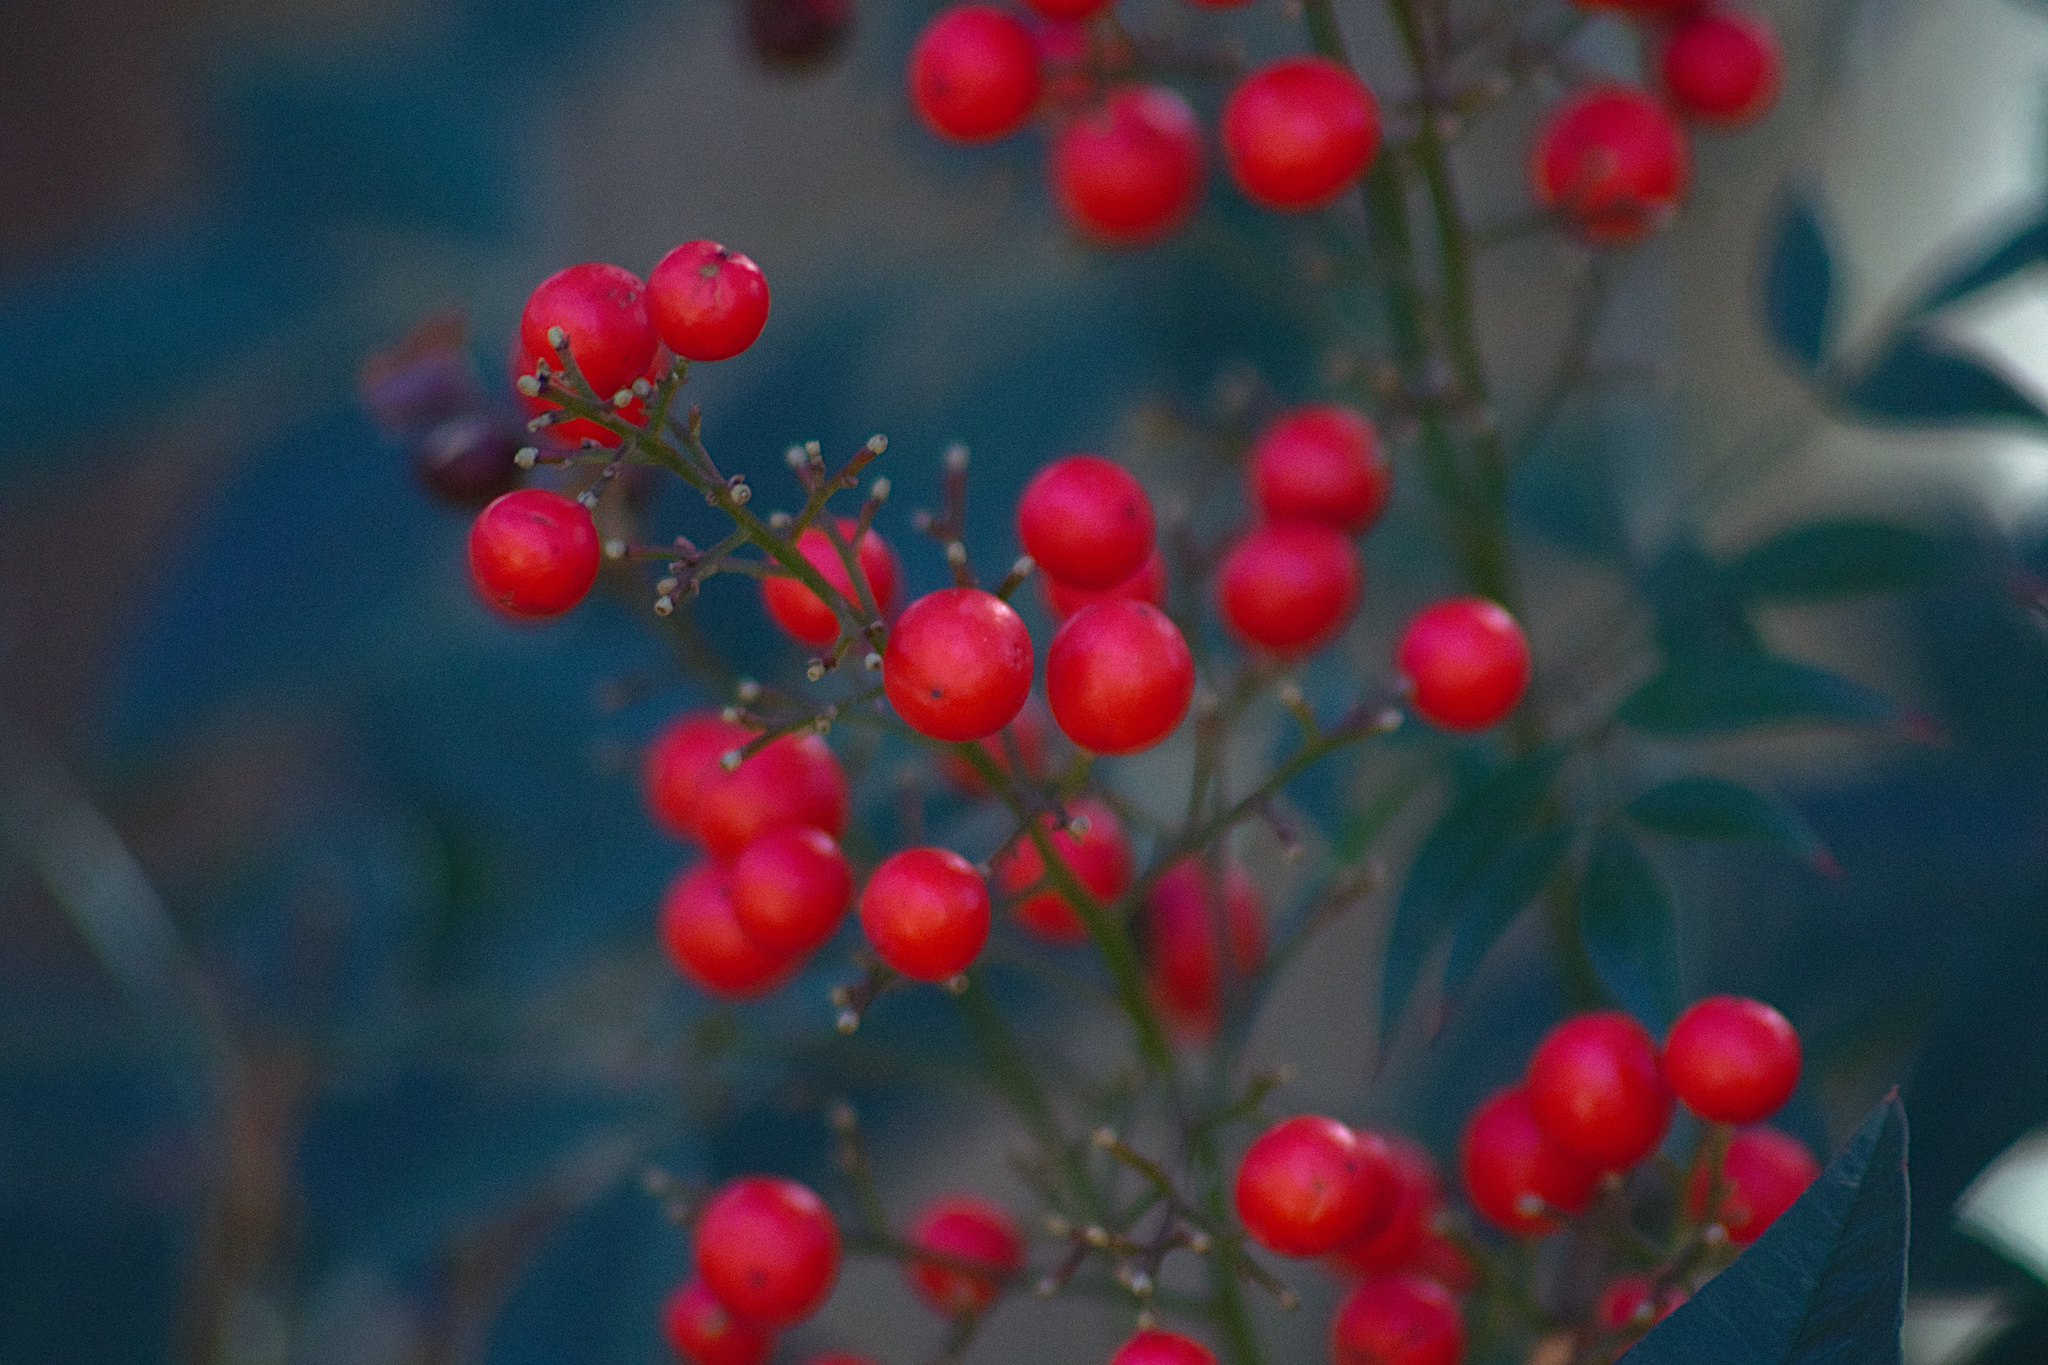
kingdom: Plantae
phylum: Tracheophyta
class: Magnoliopsida
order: Ranunculales
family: Berberidaceae
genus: Nandina
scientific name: Nandina domestica
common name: Sacred bamboo
